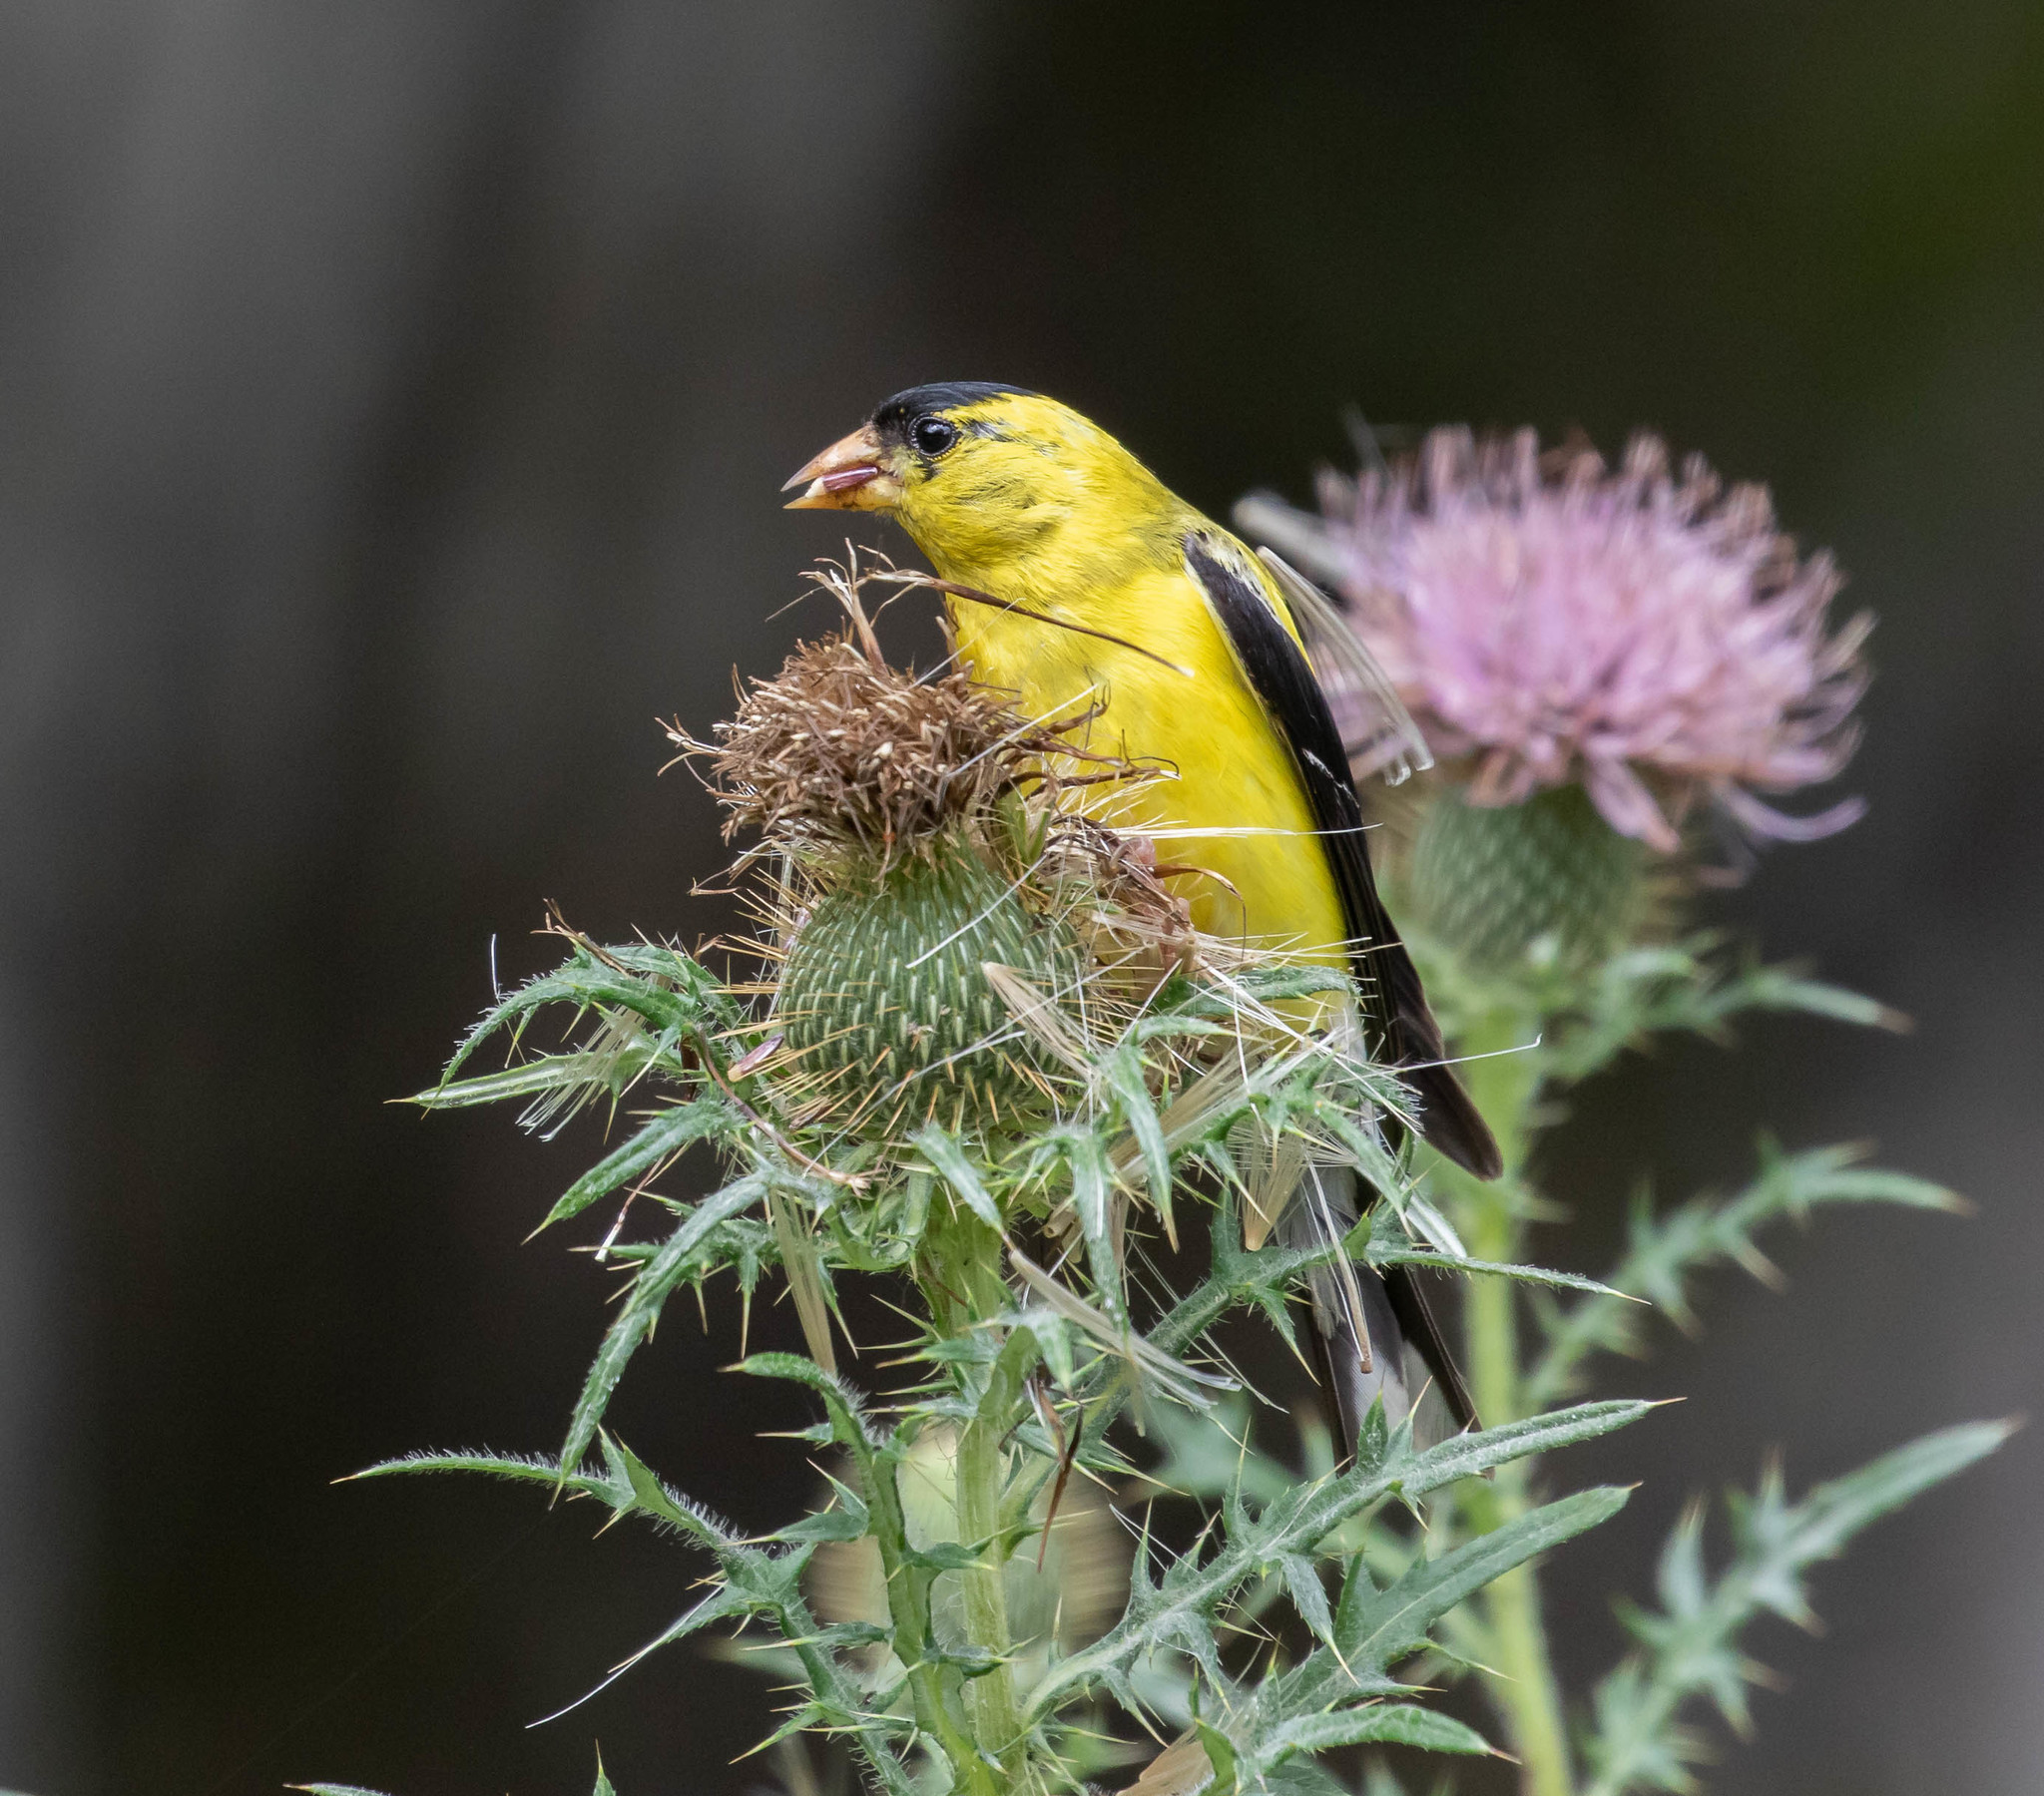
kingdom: Animalia
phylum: Chordata
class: Aves
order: Passeriformes
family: Fringillidae
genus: Spinus
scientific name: Spinus tristis
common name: American goldfinch
